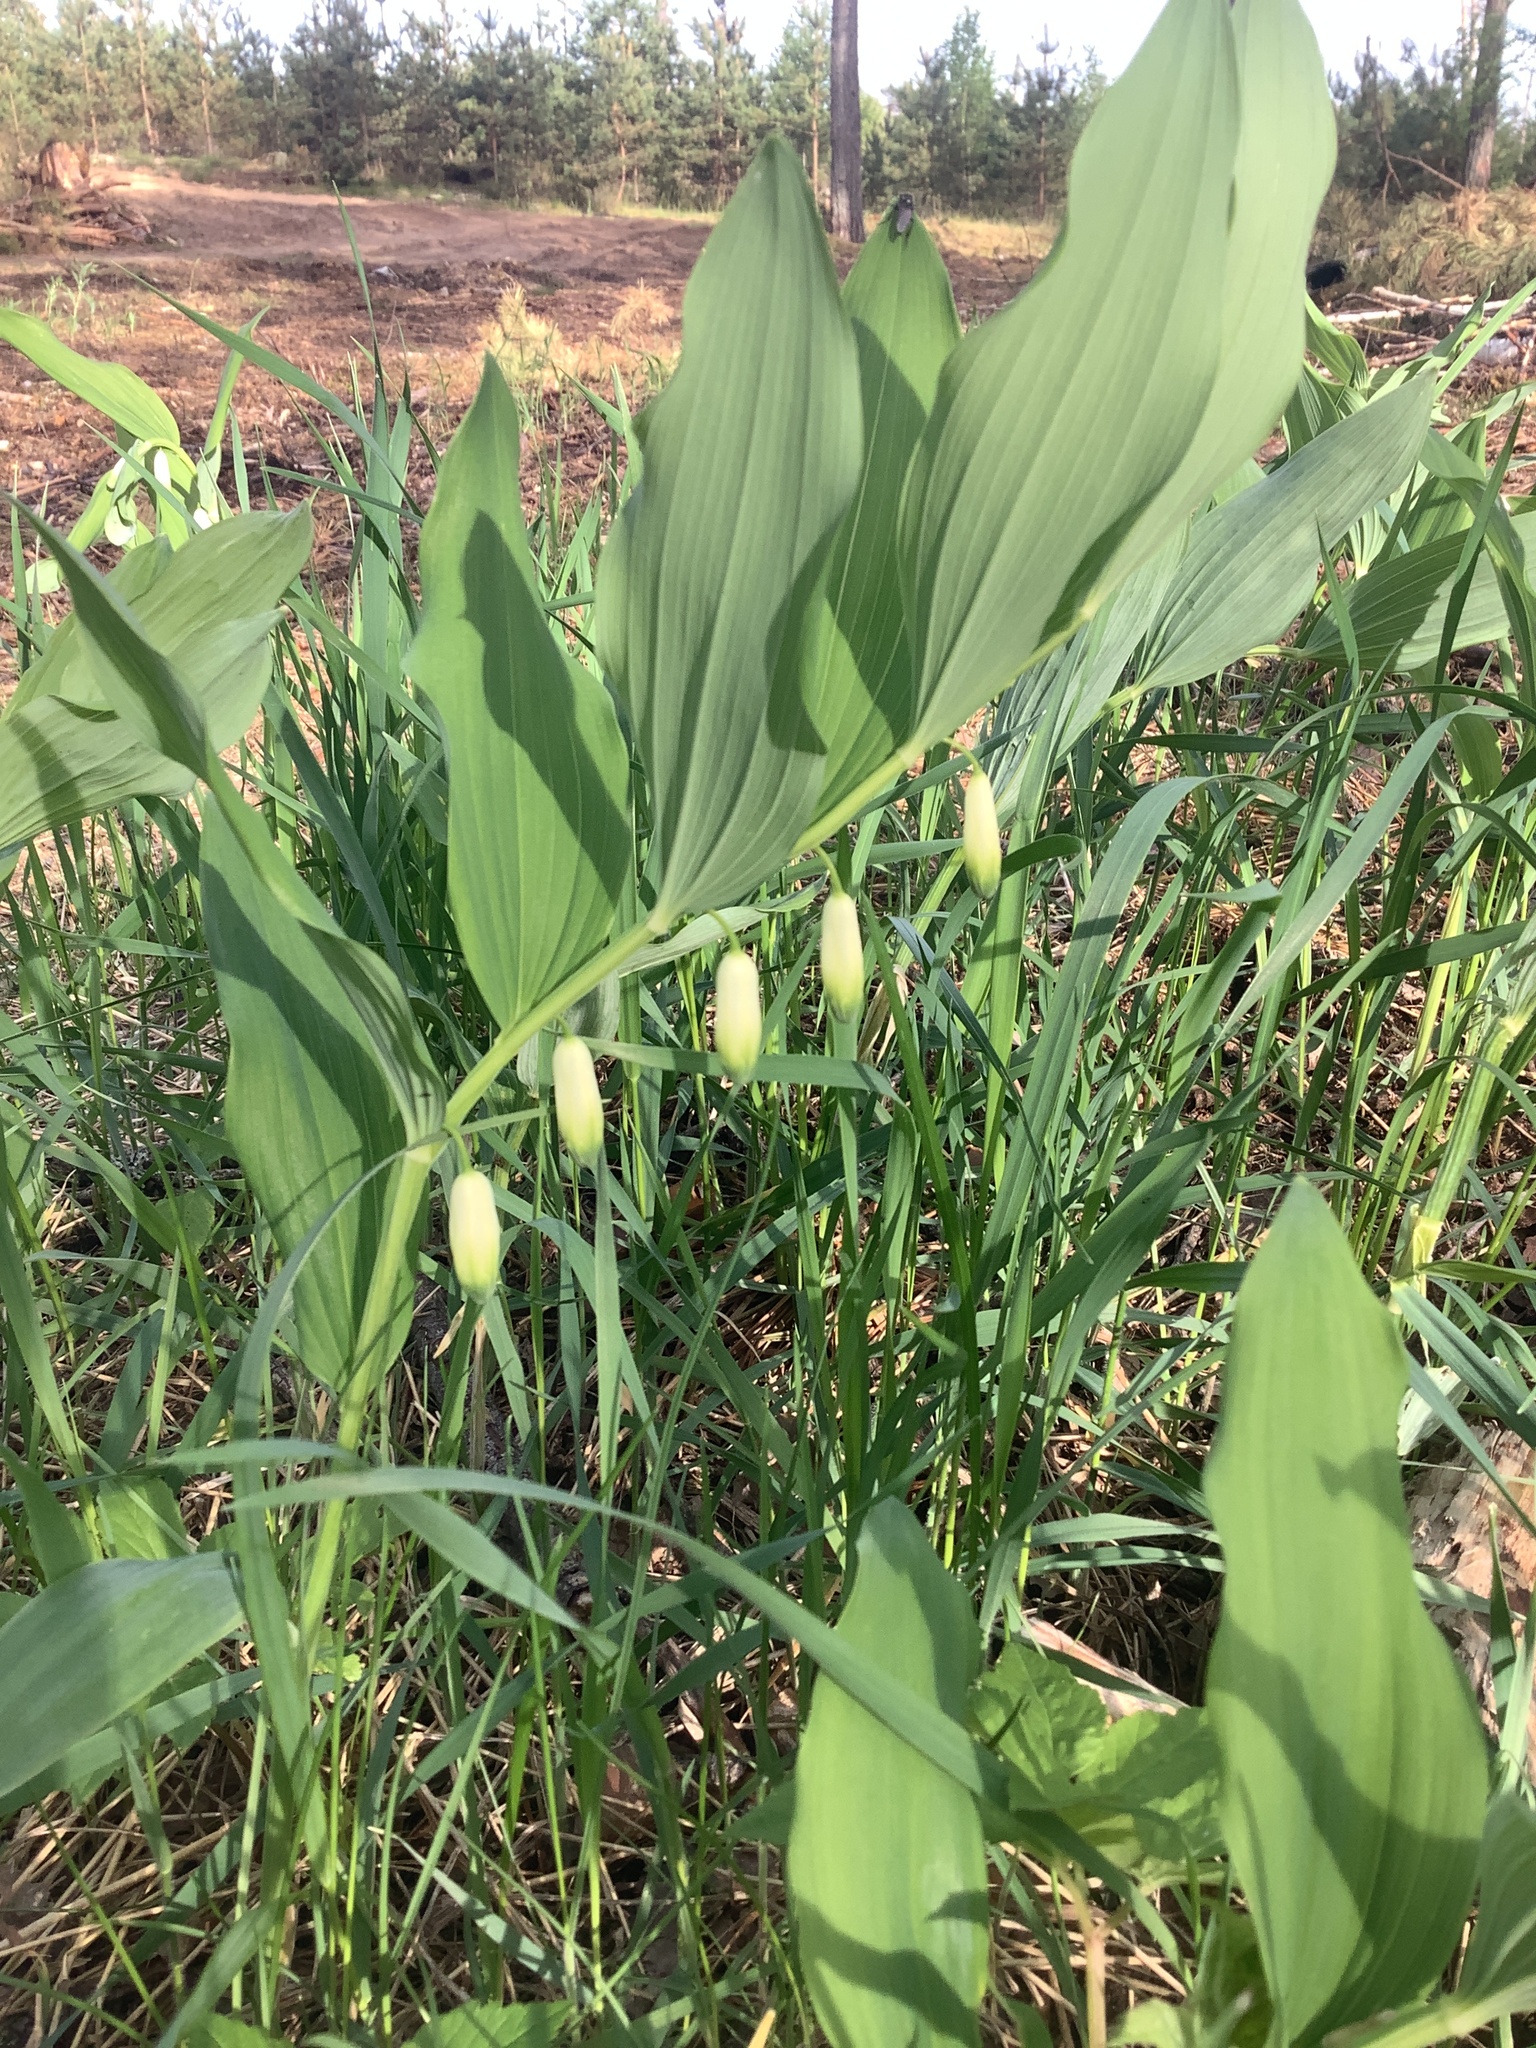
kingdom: Plantae
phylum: Tracheophyta
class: Liliopsida
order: Asparagales
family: Asparagaceae
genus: Polygonatum
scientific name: Polygonatum odoratum
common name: Angular solomon's-seal
